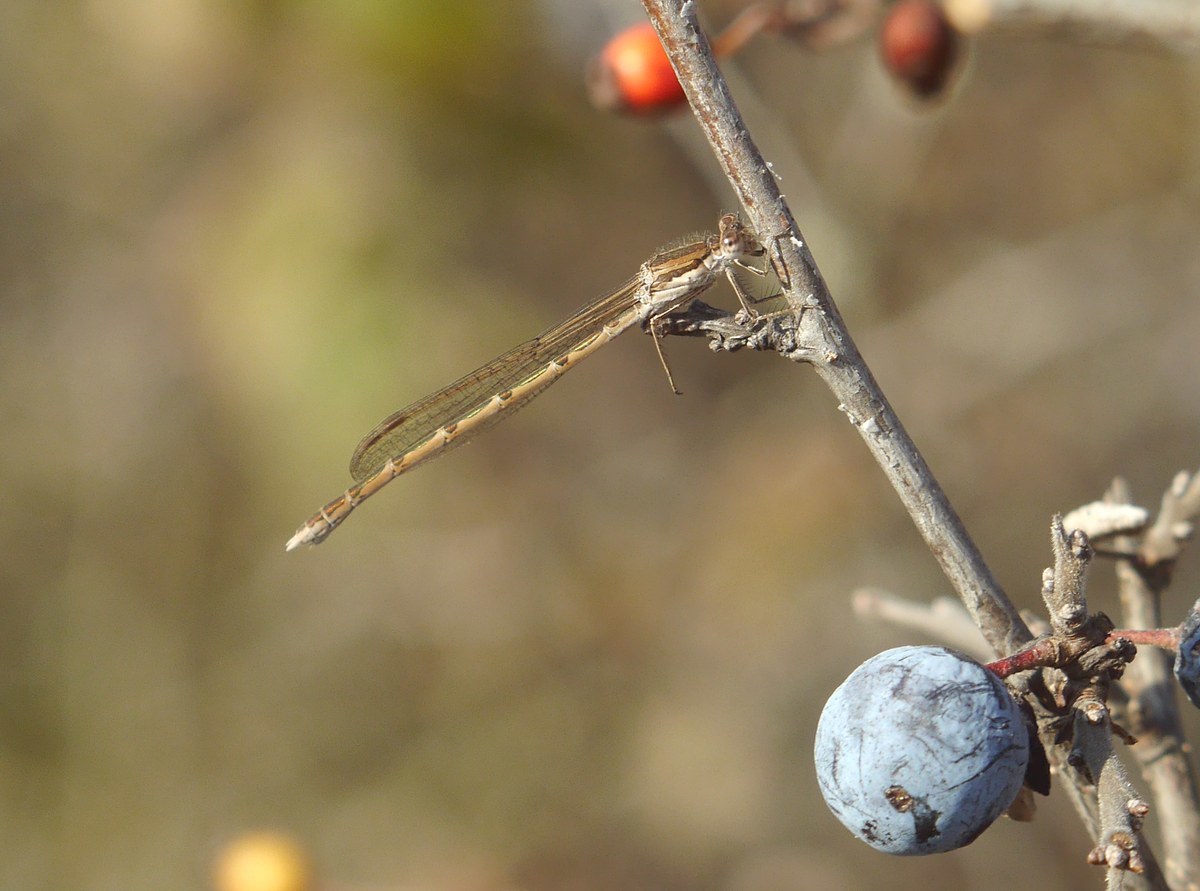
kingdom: Animalia
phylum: Arthropoda
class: Insecta
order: Odonata
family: Lestidae
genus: Sympecma
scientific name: Sympecma fusca
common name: Common winter damsel
